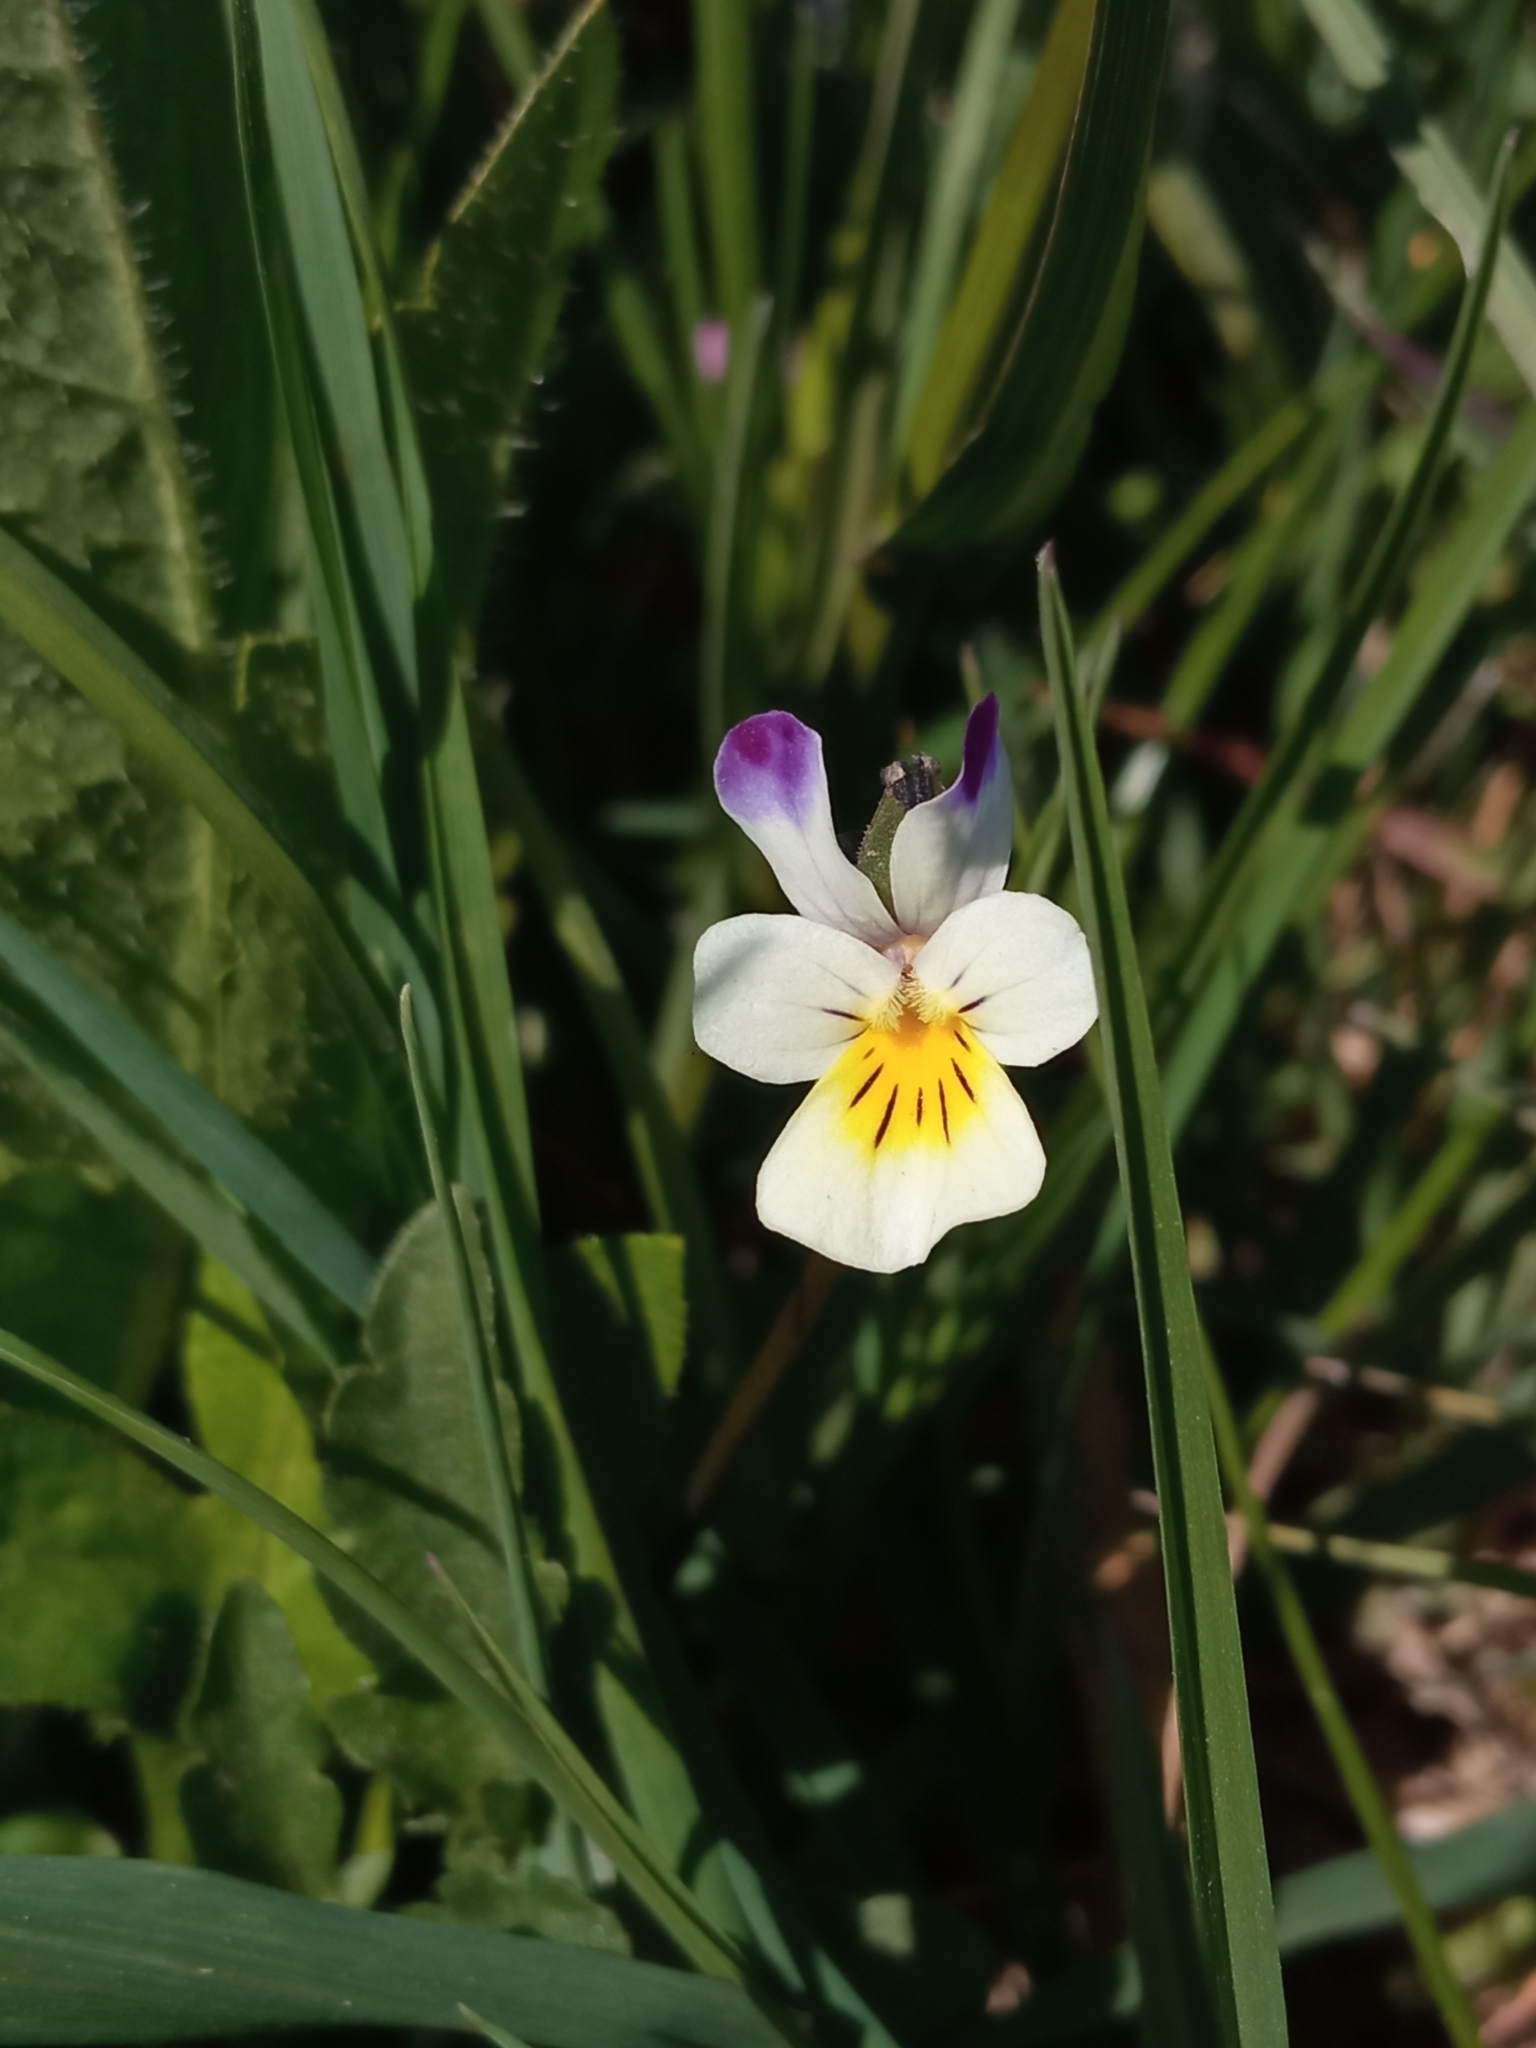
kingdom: Plantae
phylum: Tracheophyta
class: Magnoliopsida
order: Malpighiales
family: Violaceae
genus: Viola
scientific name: Viola arvensis
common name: Field pansy
